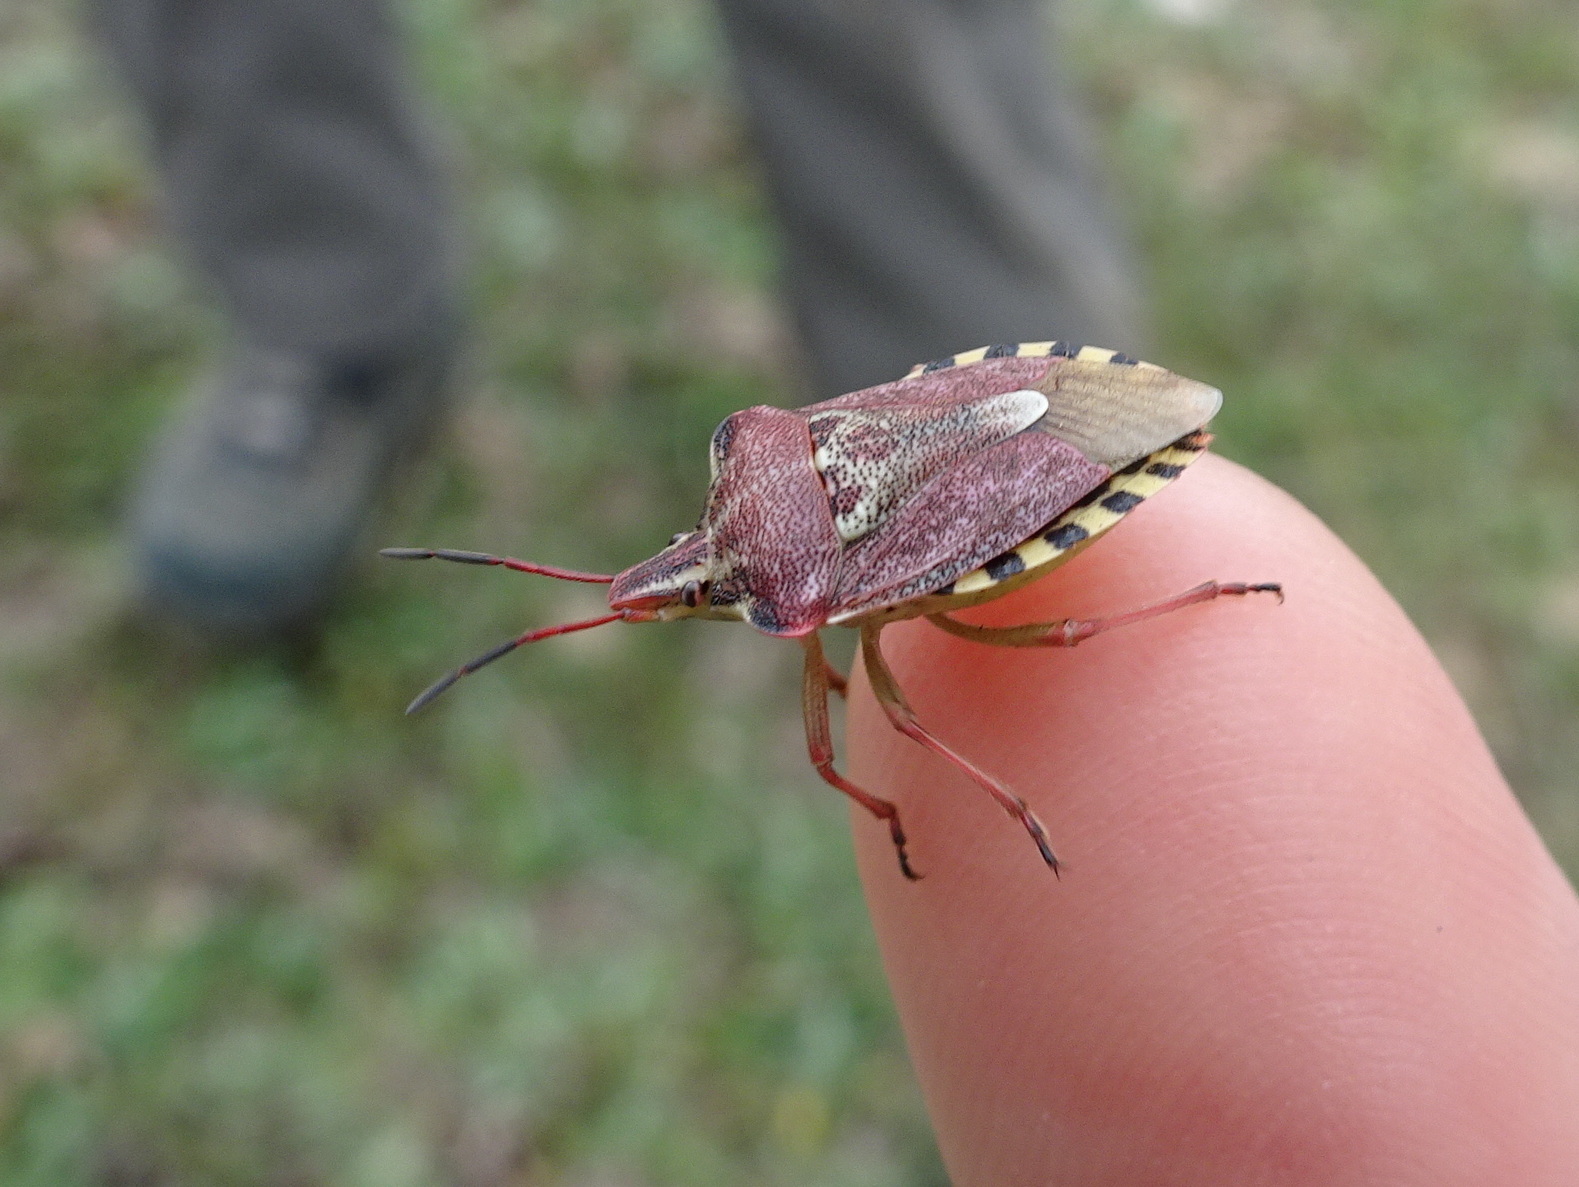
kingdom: Animalia
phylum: Arthropoda
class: Insecta
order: Hemiptera
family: Miridae
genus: Orthops
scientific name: Orthops kalmii
